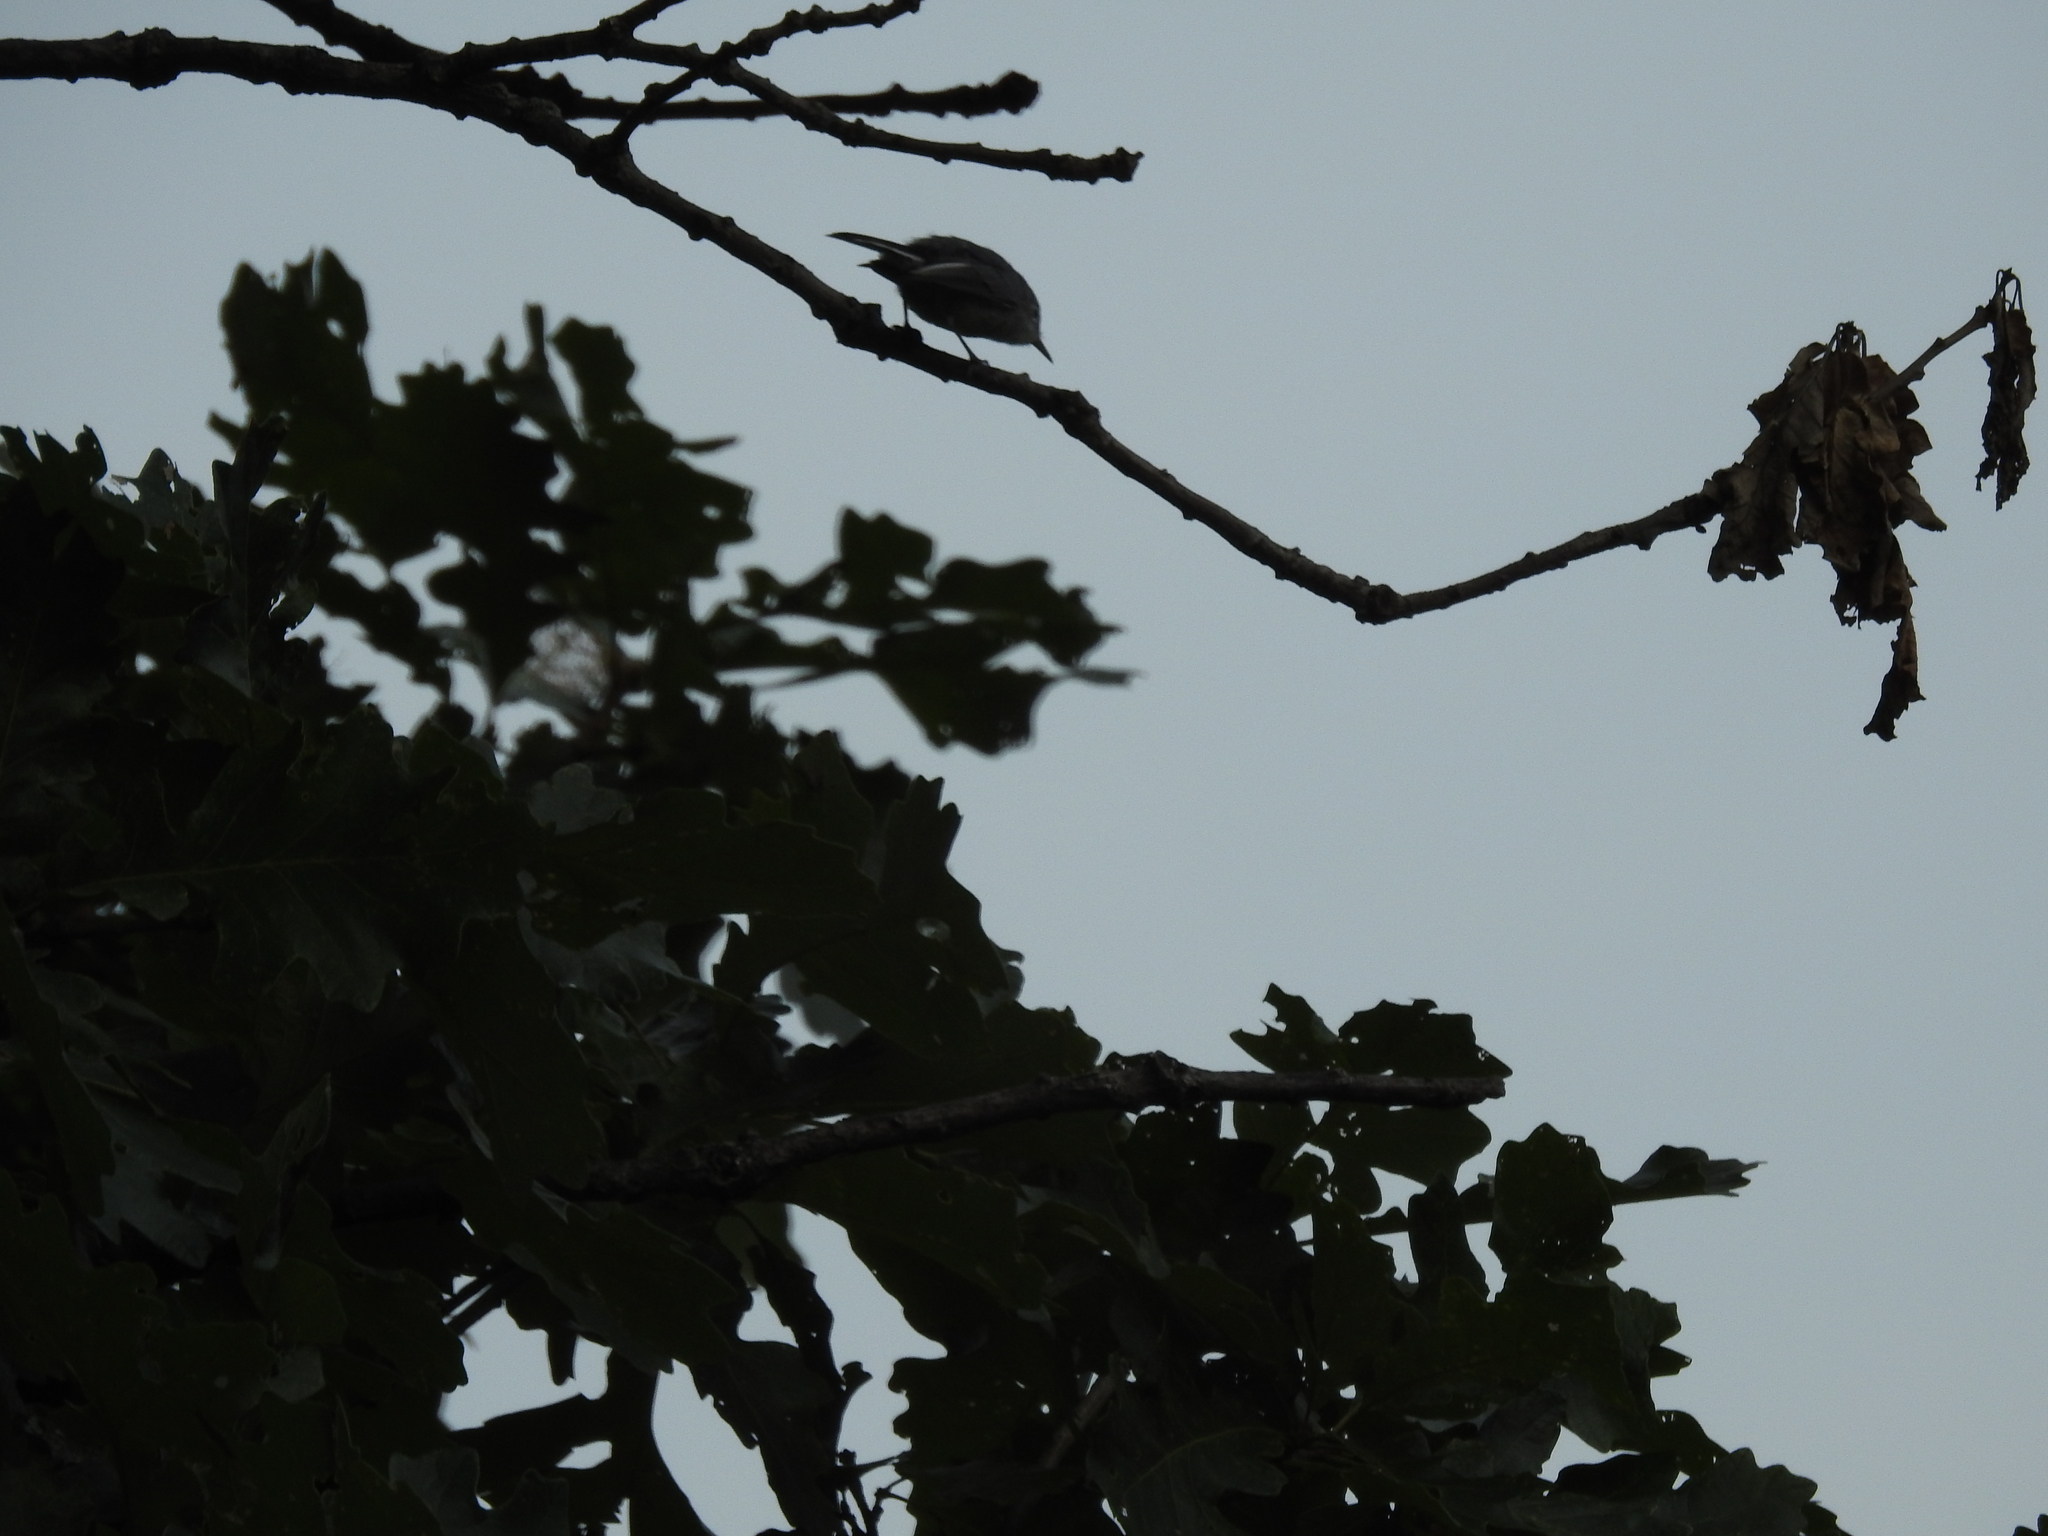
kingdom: Animalia
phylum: Chordata
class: Aves
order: Passeriformes
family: Polioptilidae
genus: Polioptila
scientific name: Polioptila caerulea
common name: Blue-gray gnatcatcher
